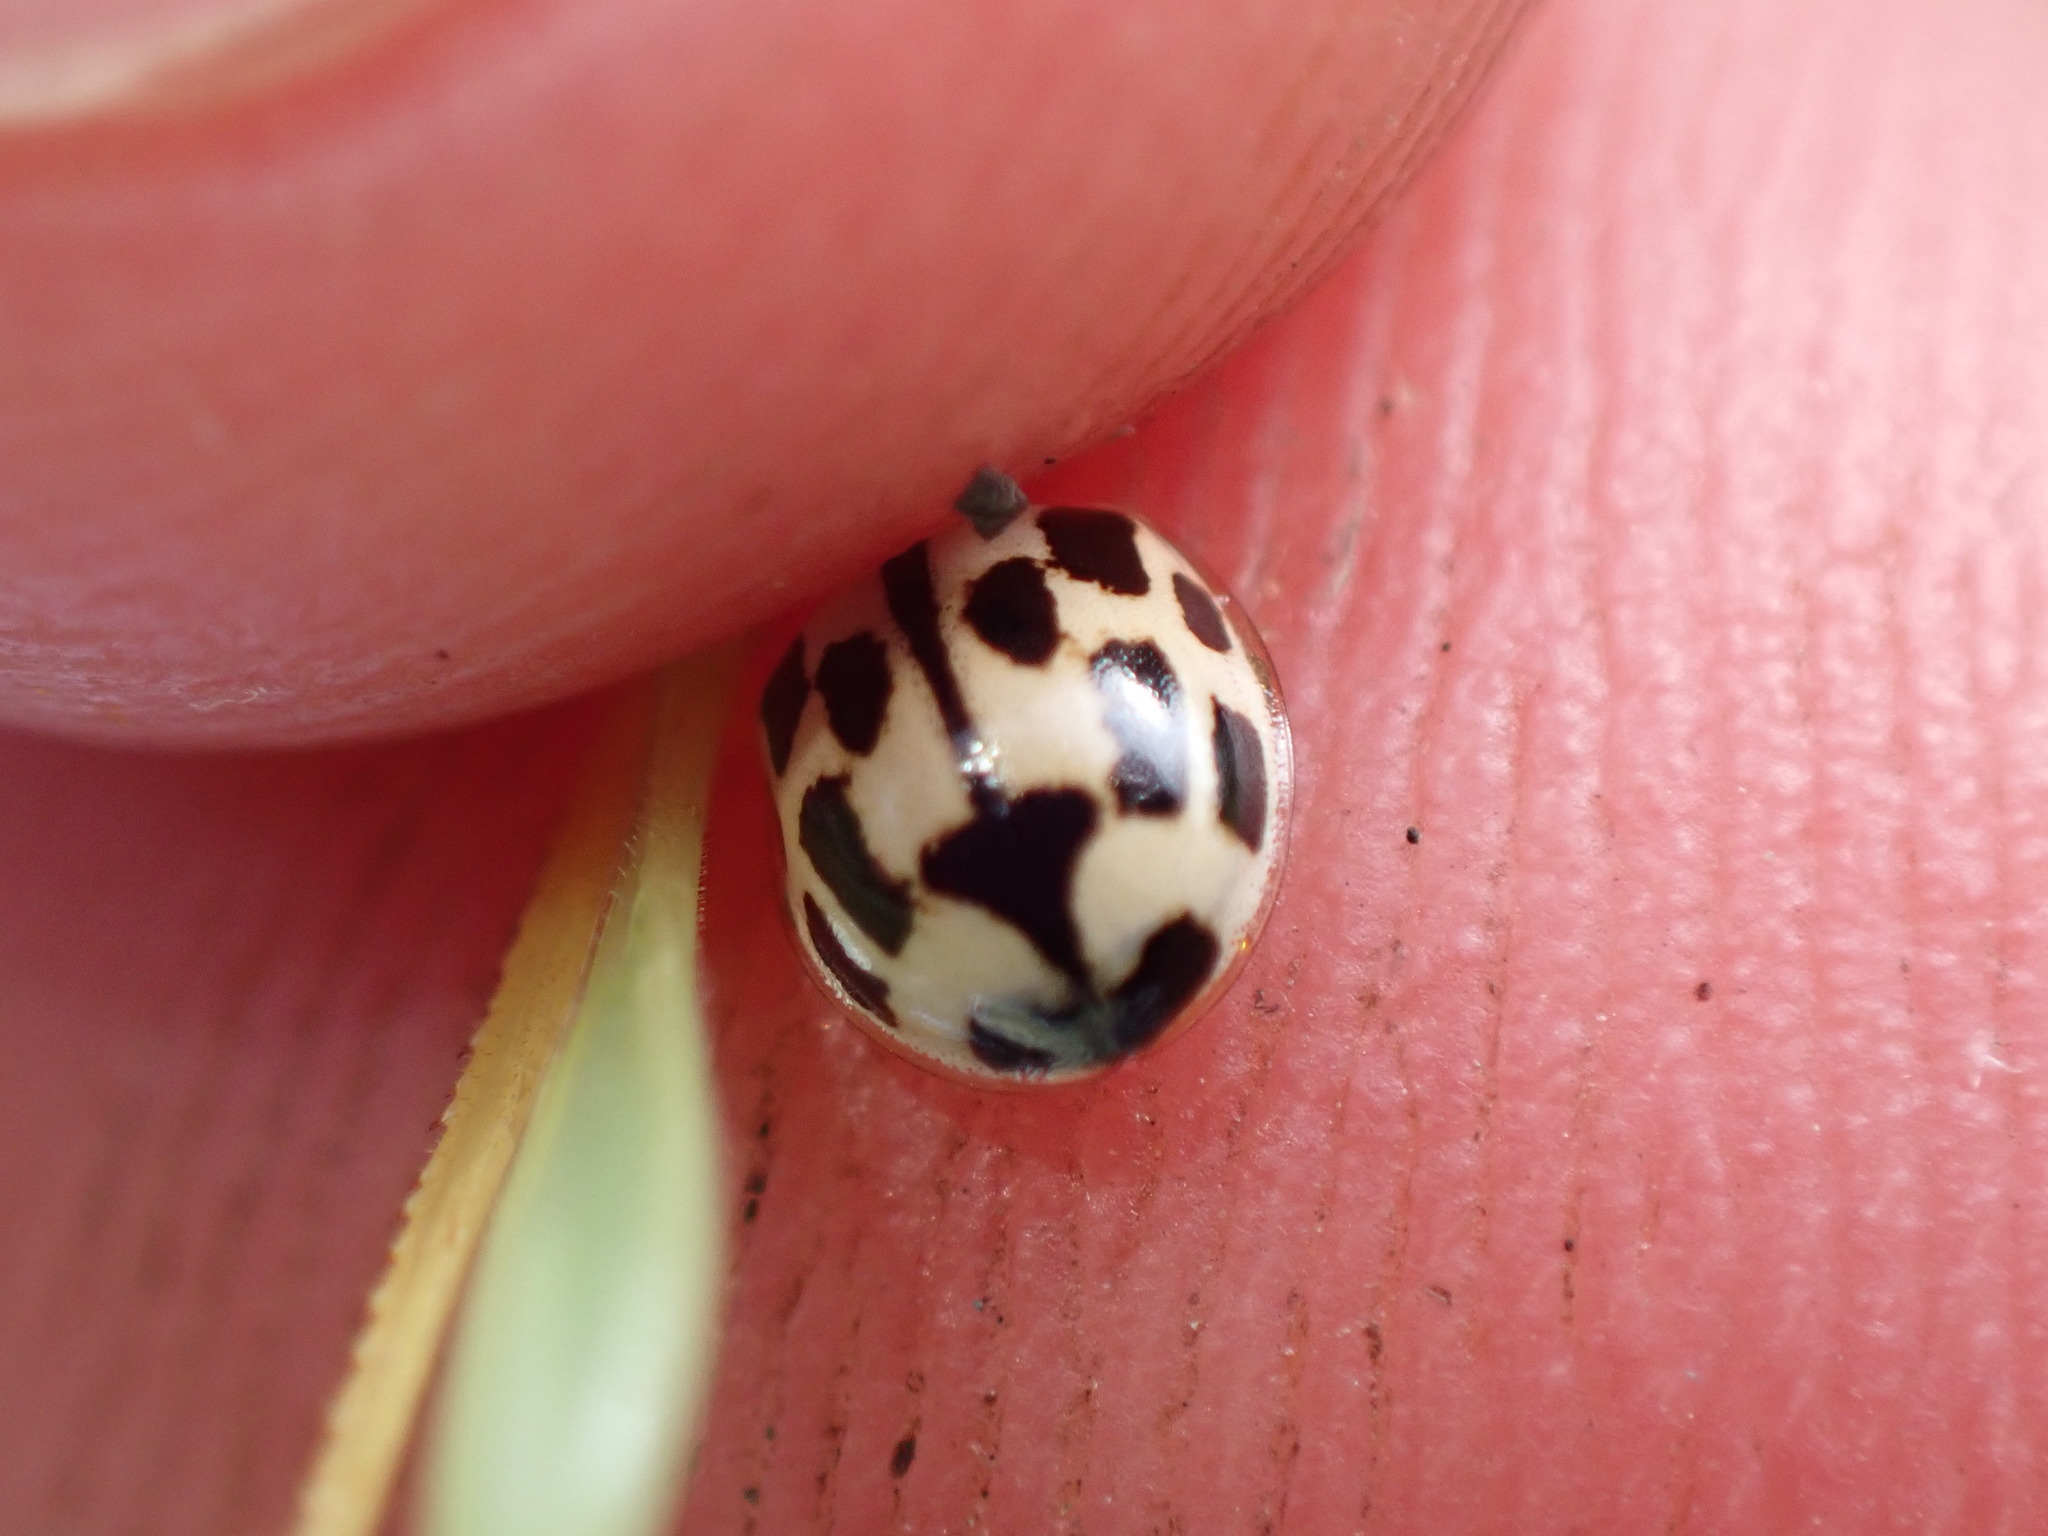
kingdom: Animalia
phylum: Arthropoda
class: Insecta
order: Coleoptera
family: Coccinellidae
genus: Propylaea
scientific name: Propylaea quatuordecimpunctata
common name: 14-spotted ladybird beetle
